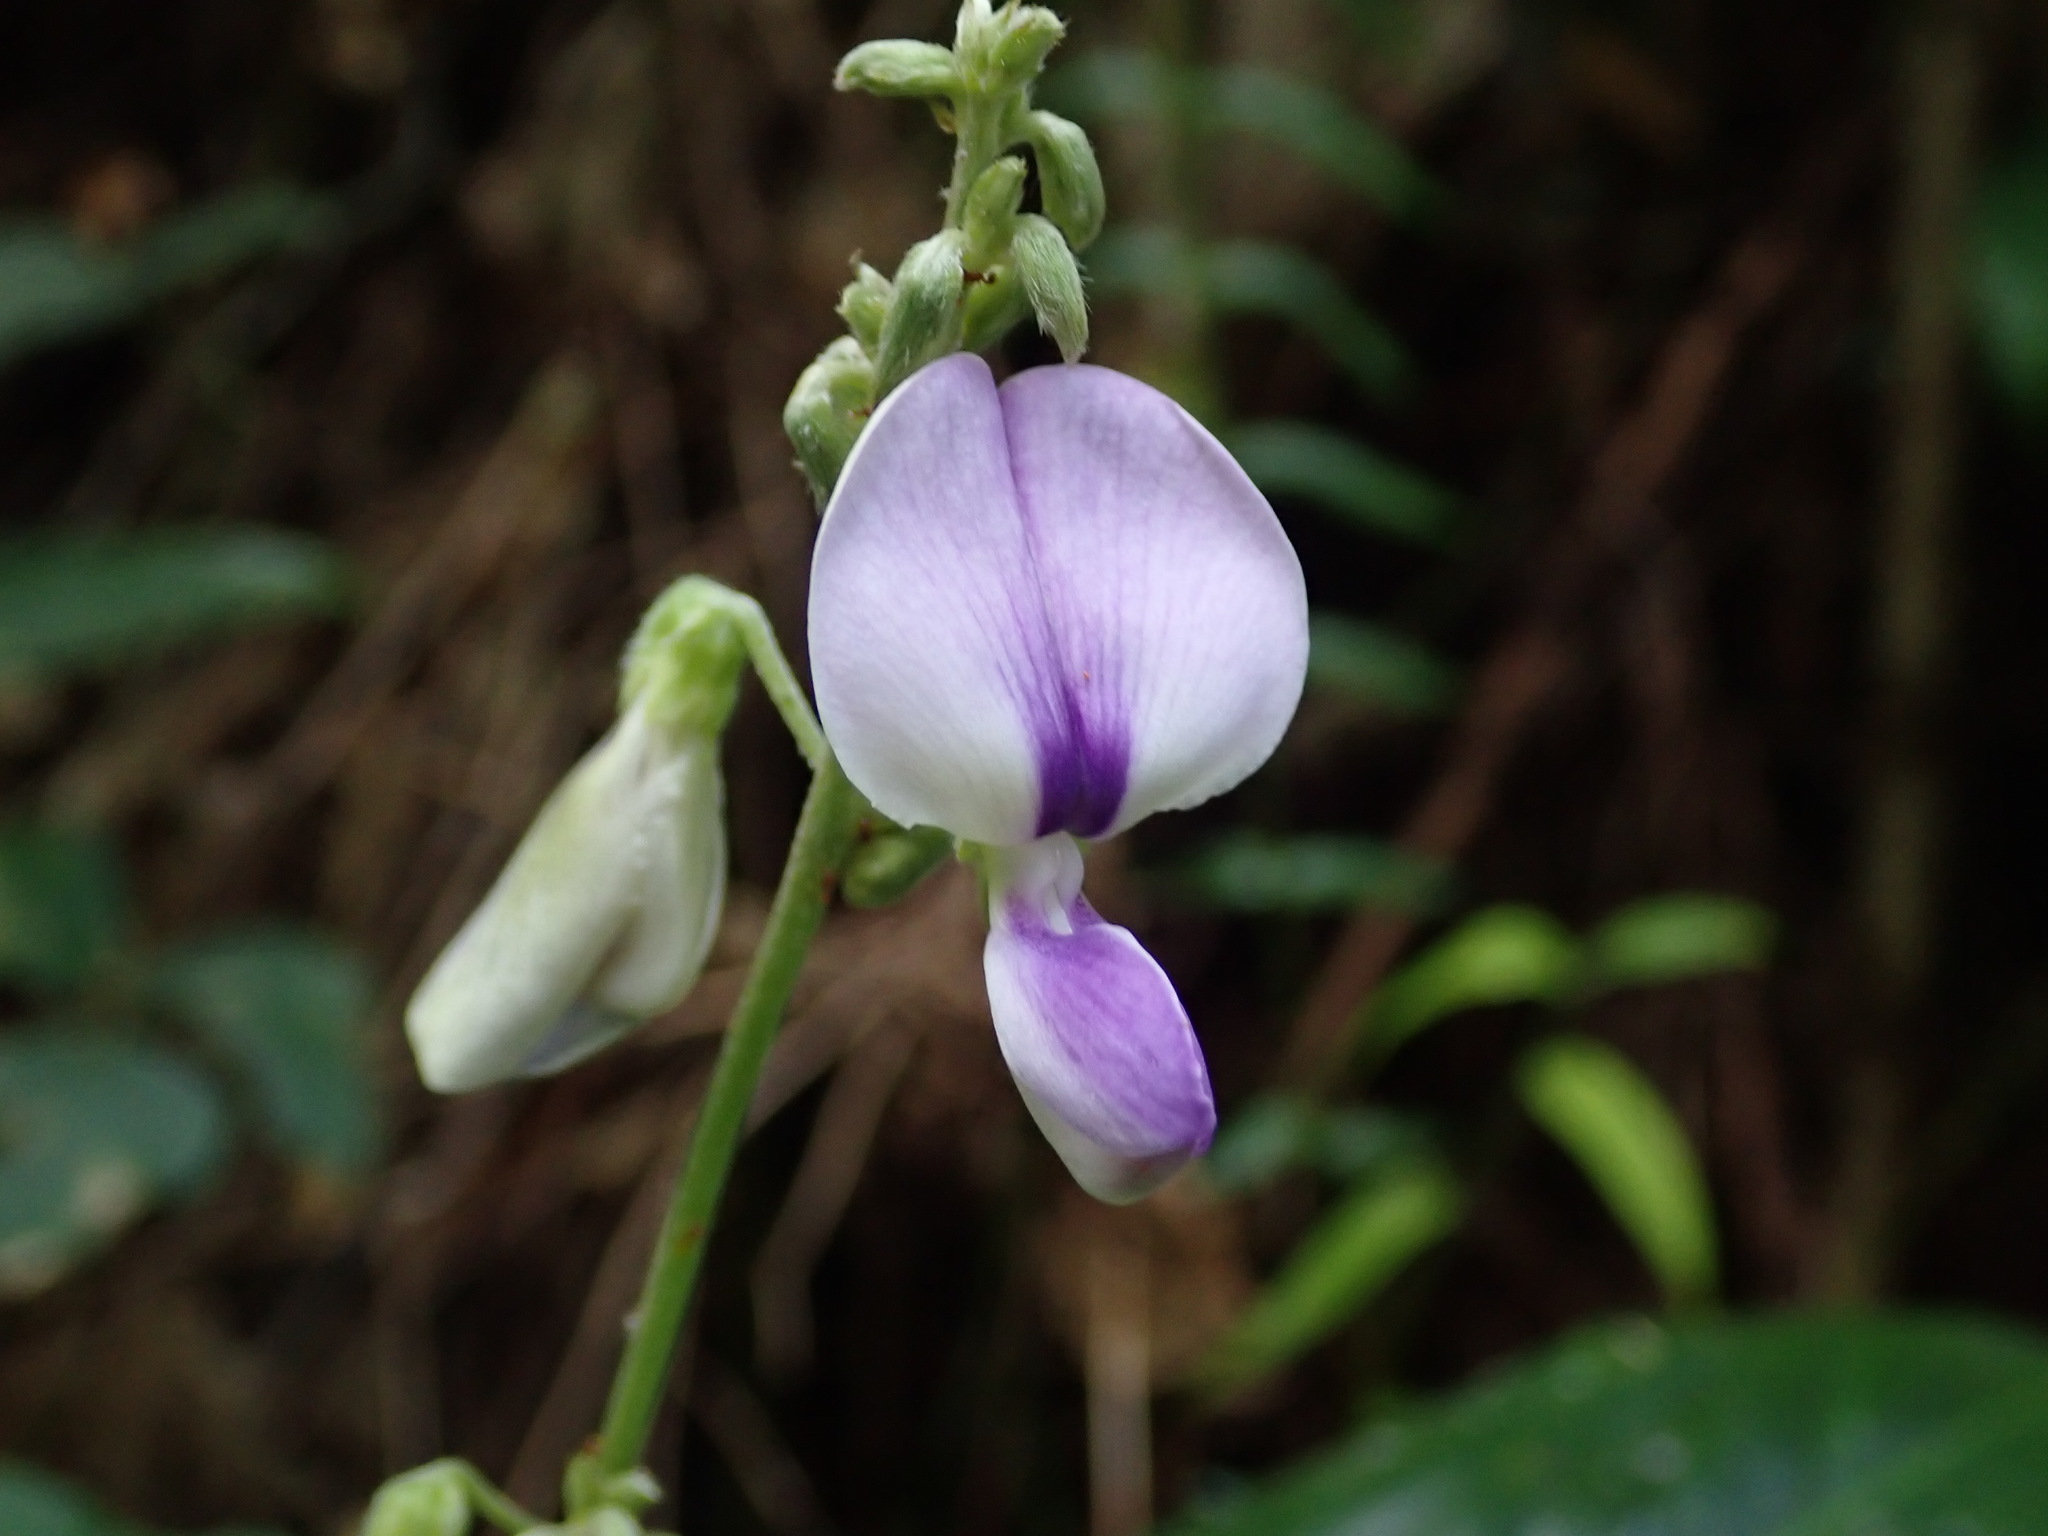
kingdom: Plantae
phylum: Tracheophyta
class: Magnoliopsida
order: Fabales
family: Fabaceae
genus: Neustanthus
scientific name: Neustanthus phaseoloides
